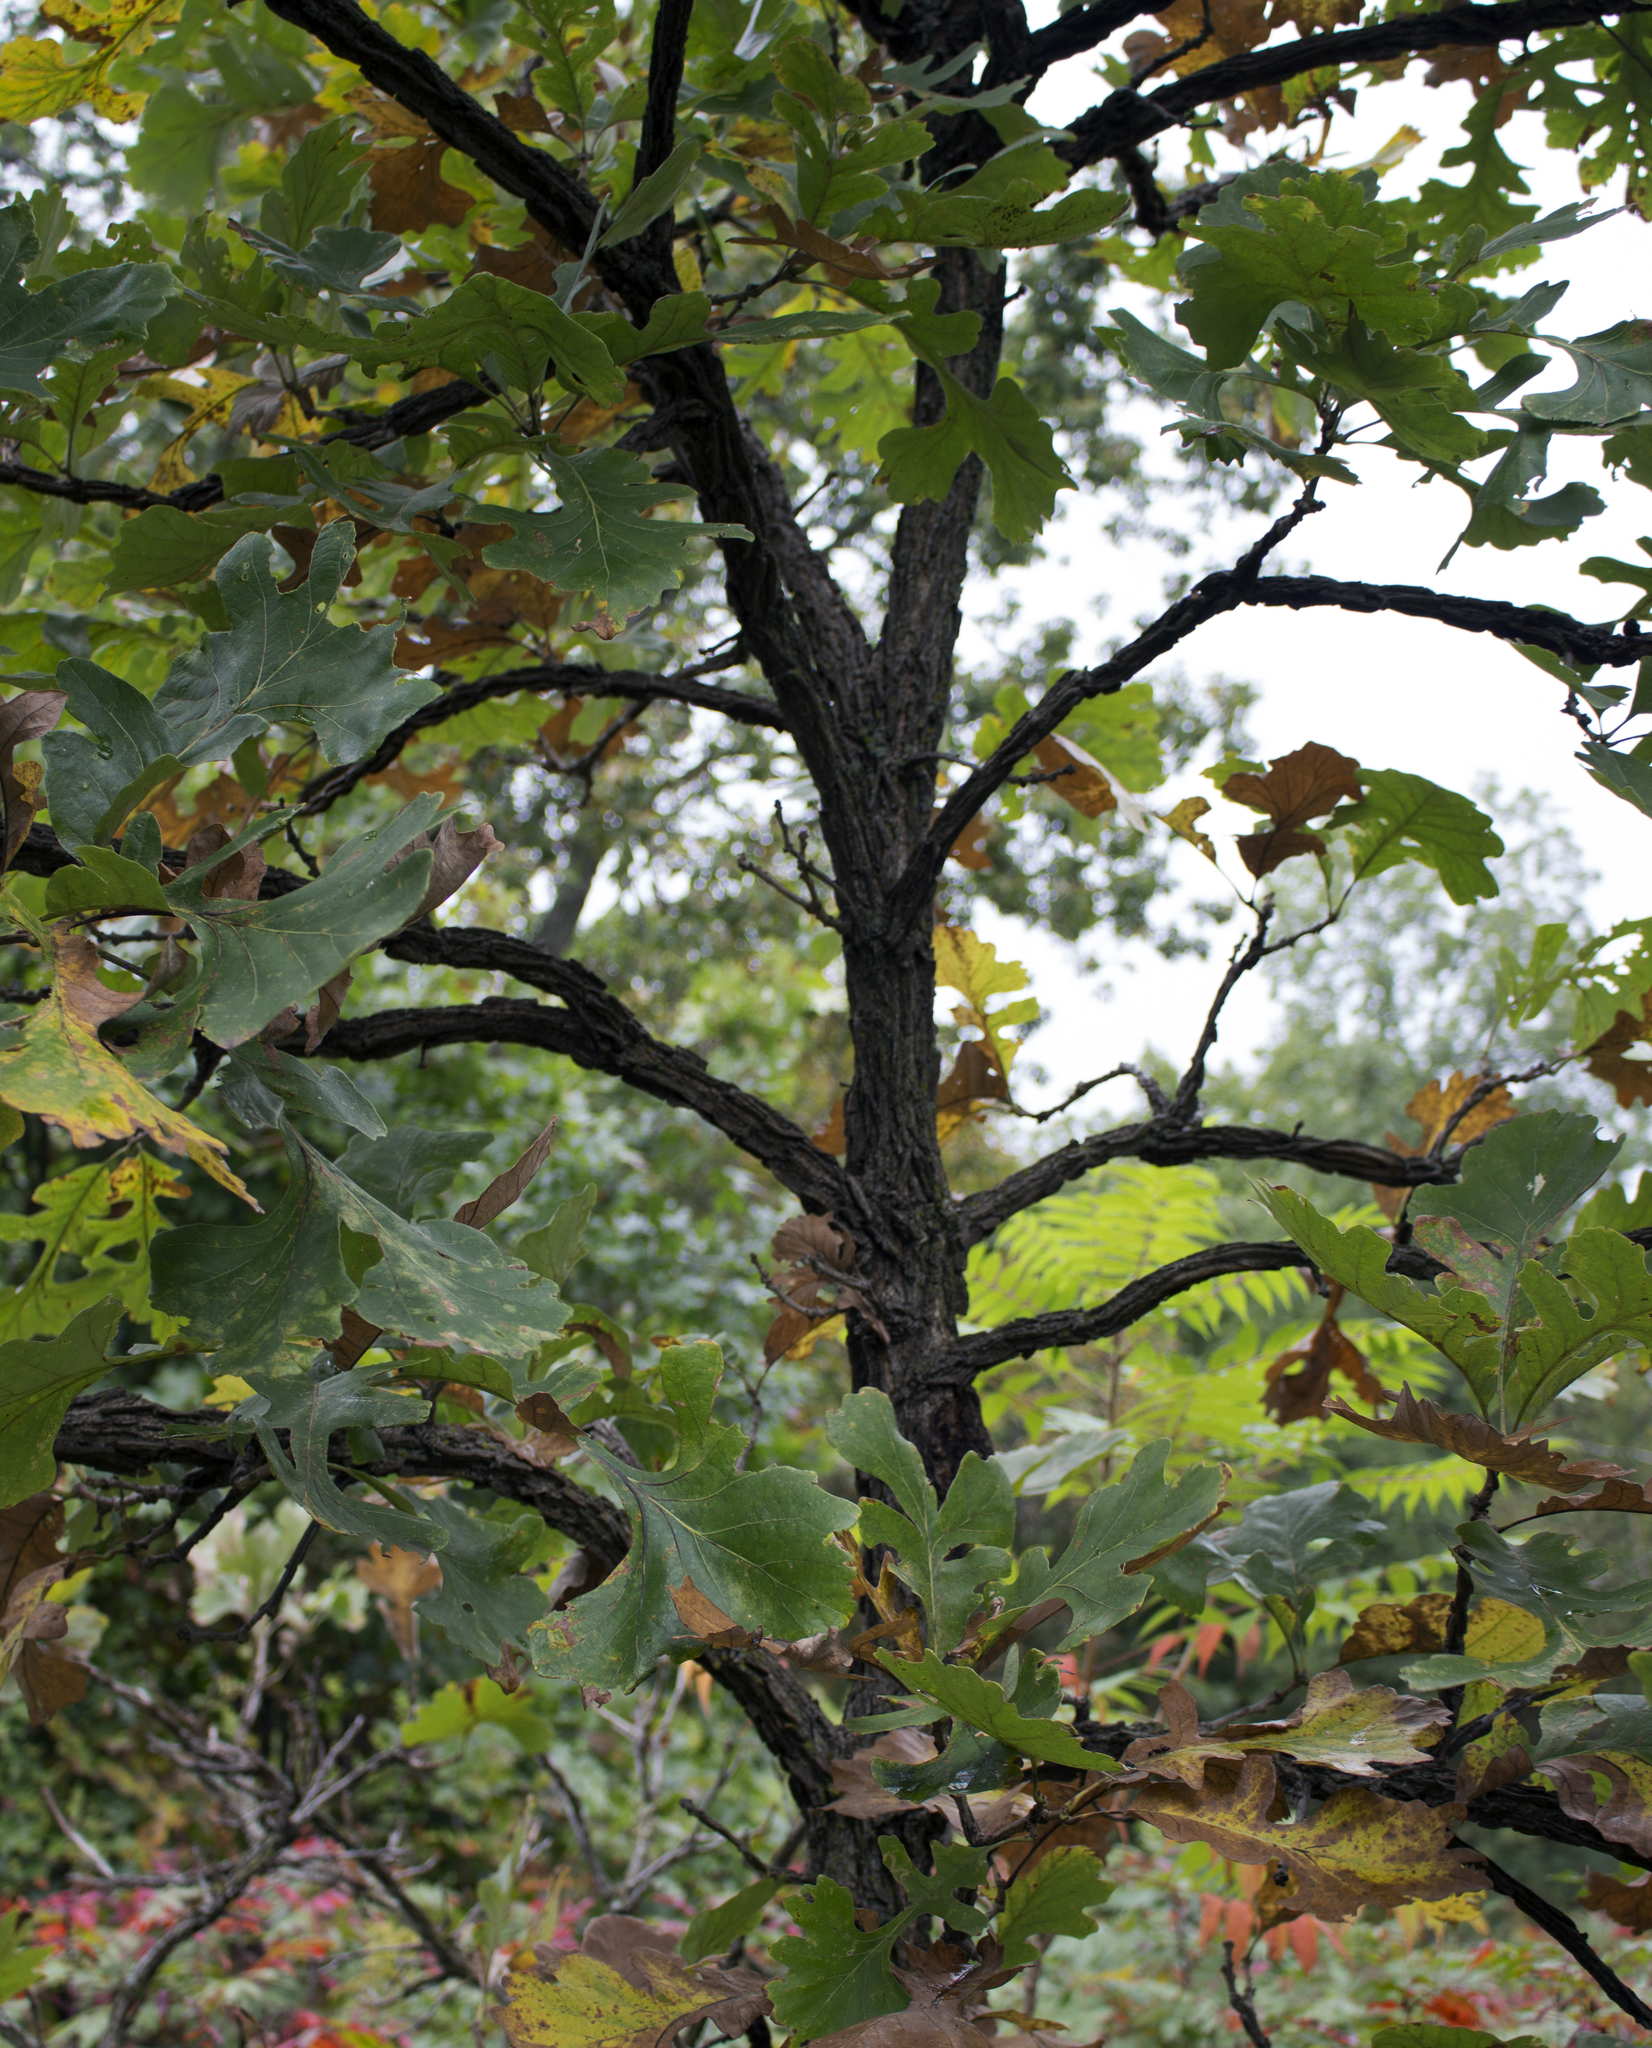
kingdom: Plantae
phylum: Tracheophyta
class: Magnoliopsida
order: Fagales
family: Fagaceae
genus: Quercus
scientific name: Quercus macrocarpa
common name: Bur oak
